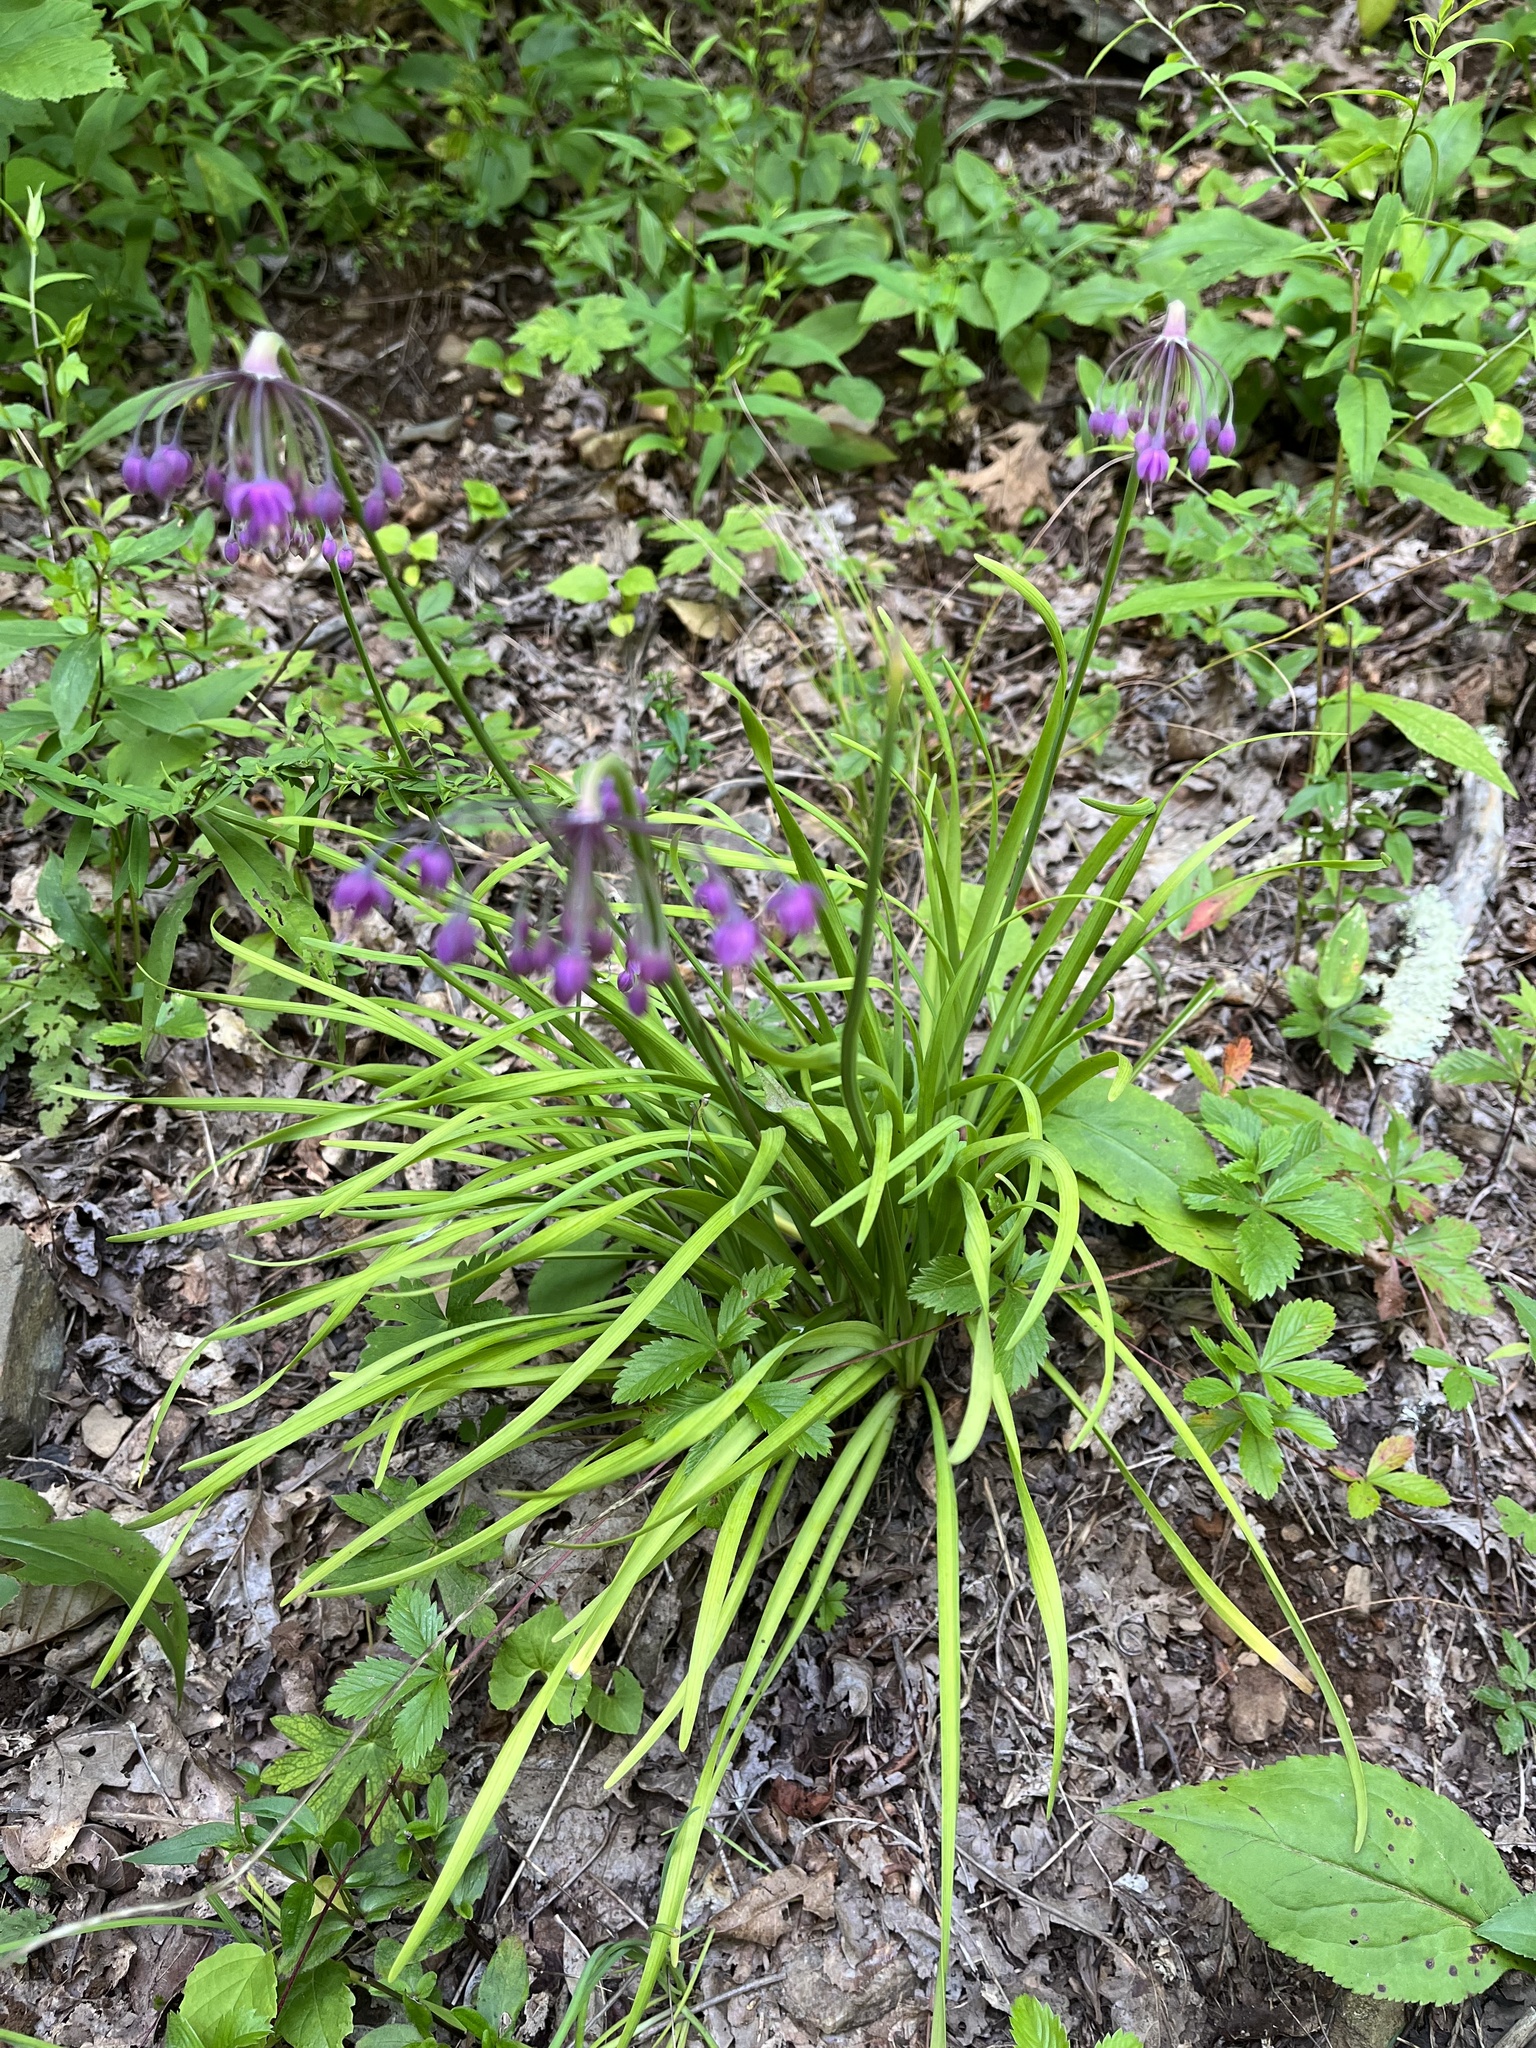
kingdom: Plantae
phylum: Tracheophyta
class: Liliopsida
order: Asparagales
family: Amaryllidaceae
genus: Allium
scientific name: Allium cernuum
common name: Nodding onion
